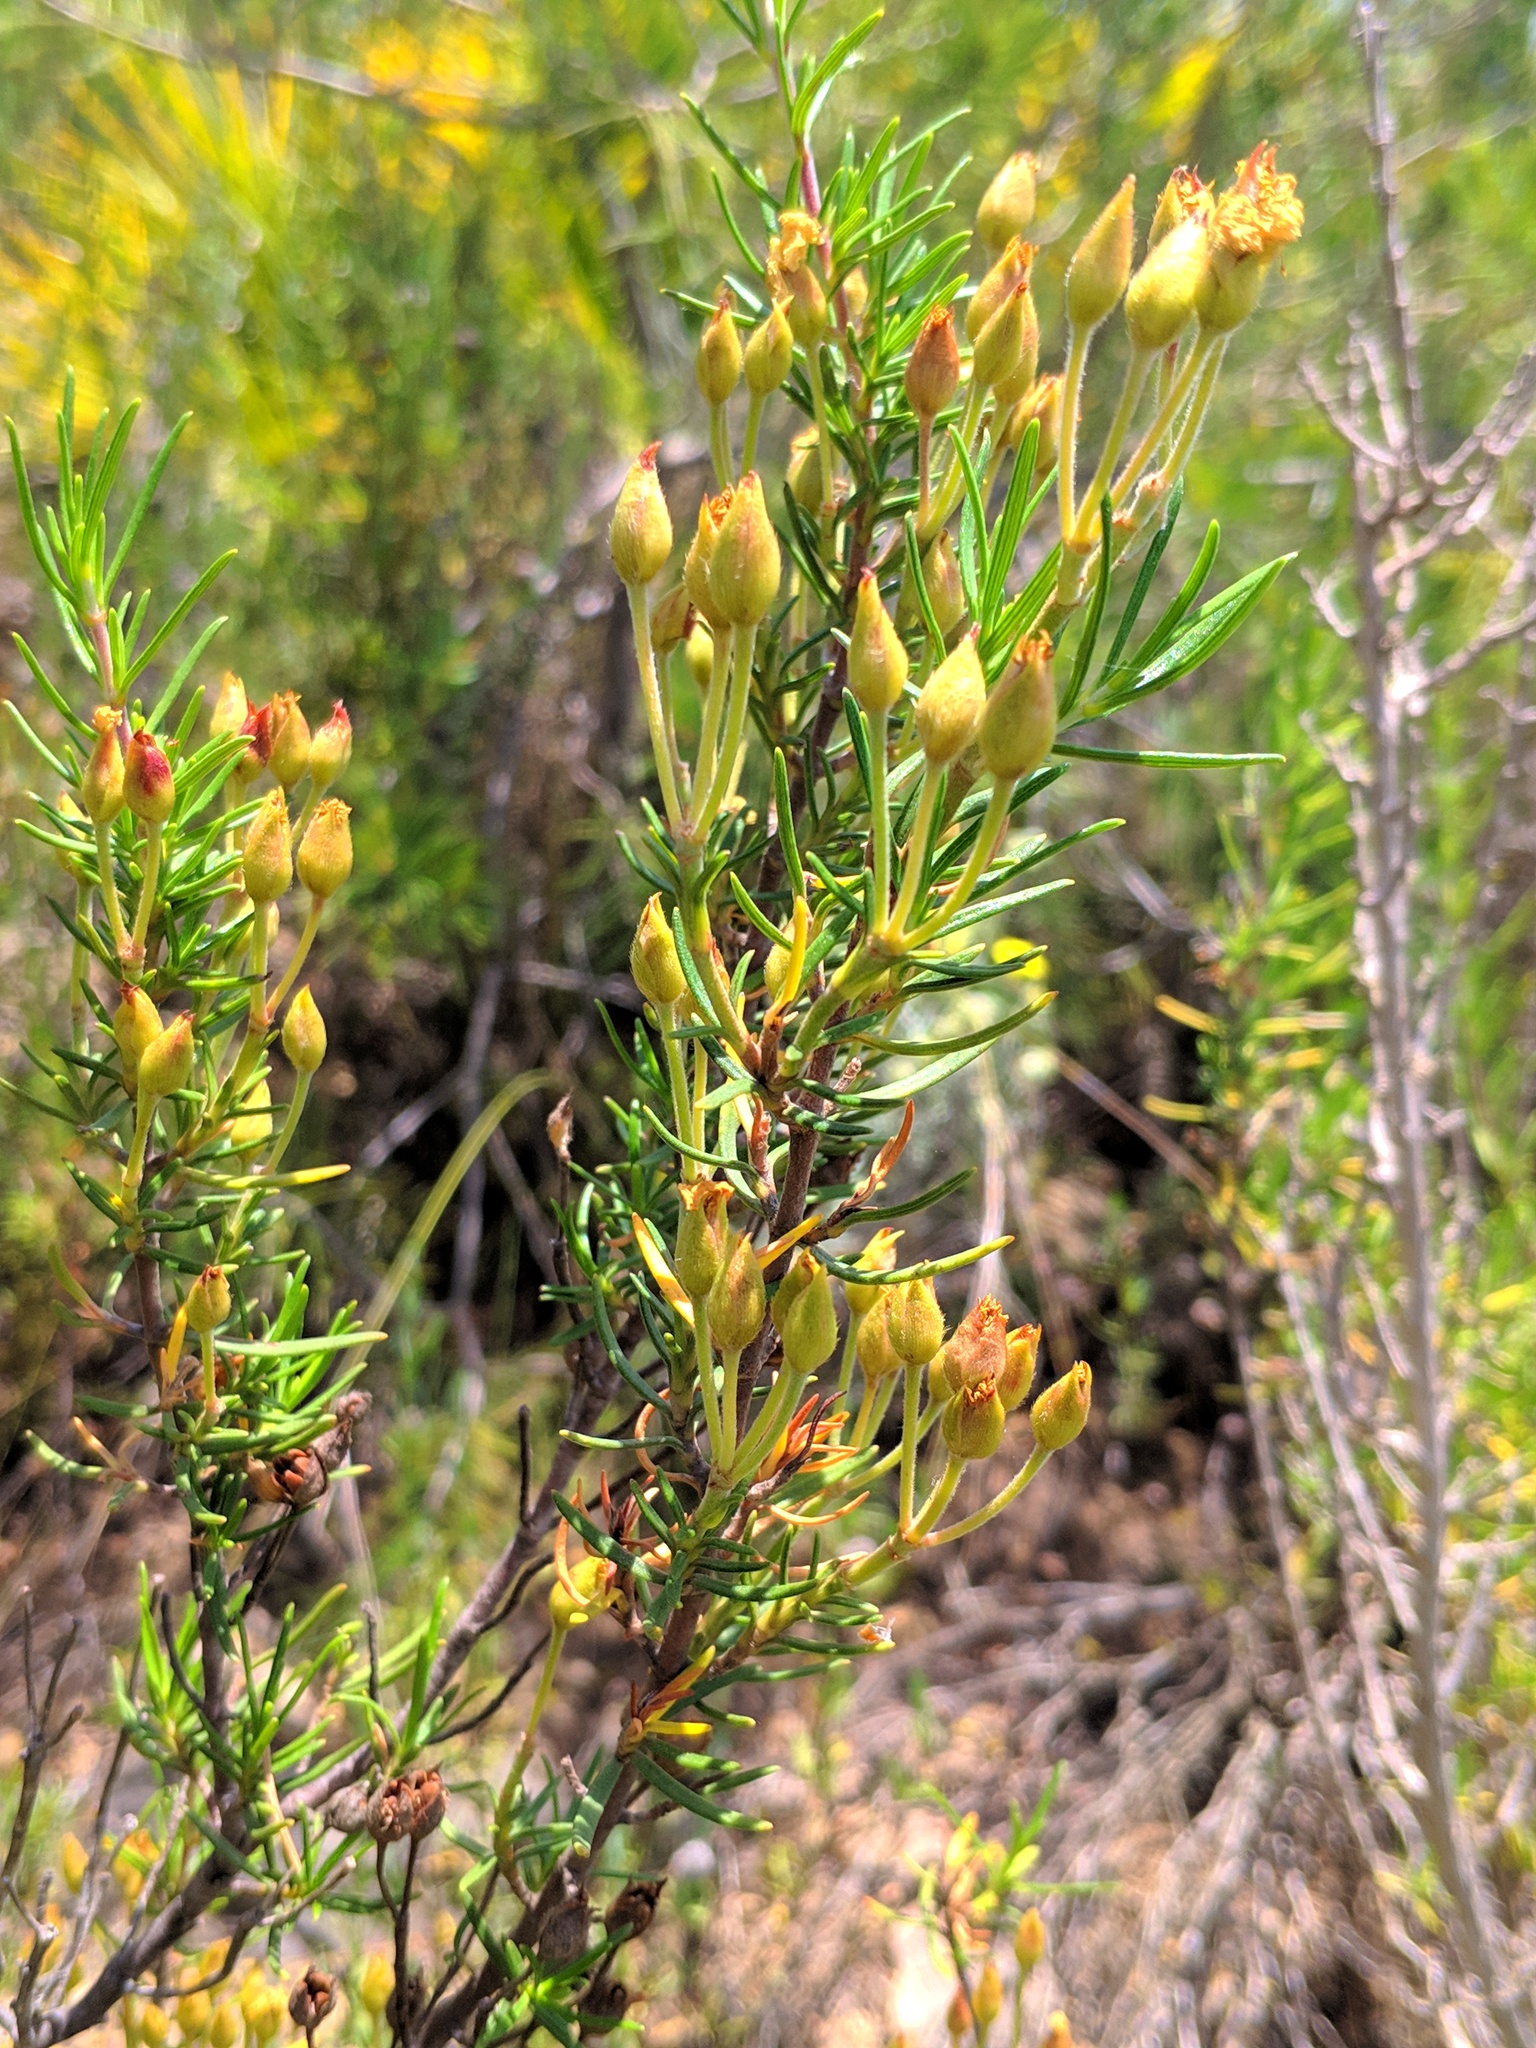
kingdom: Plantae
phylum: Tracheophyta
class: Magnoliopsida
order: Malvales
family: Cistaceae
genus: Cistus
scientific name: Cistus clusii
